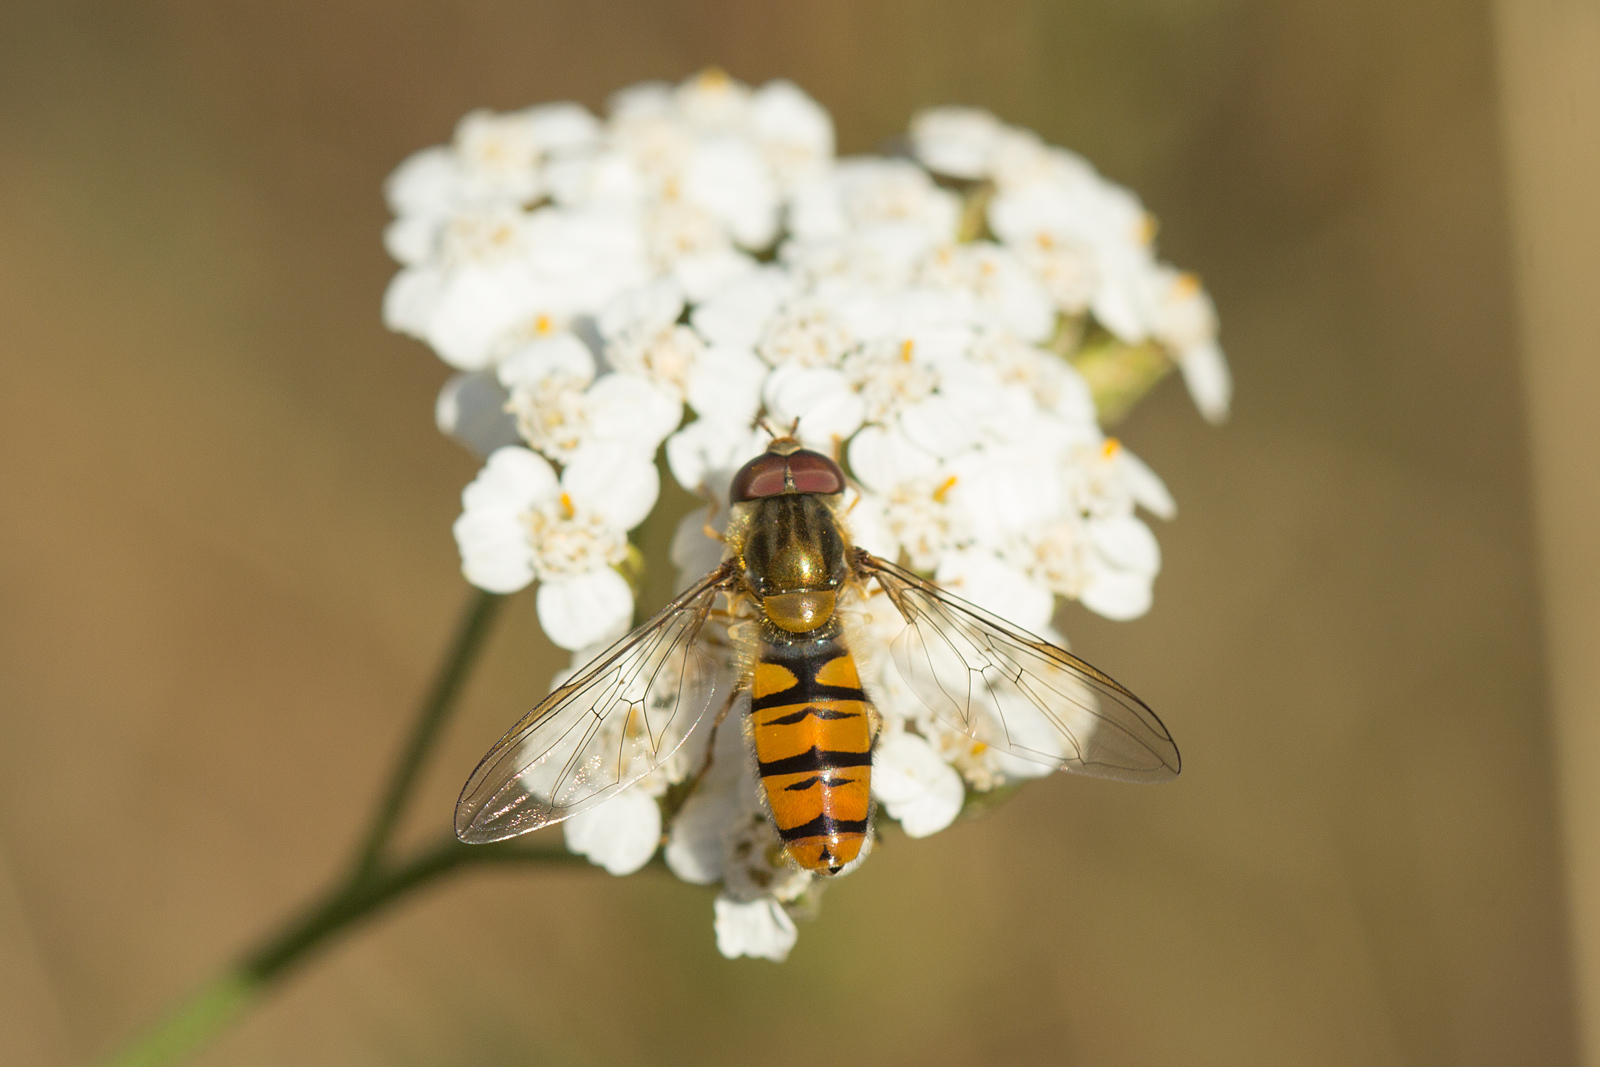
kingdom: Animalia
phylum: Arthropoda
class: Insecta
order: Diptera
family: Syrphidae
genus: Episyrphus
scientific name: Episyrphus balteatus
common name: Marmalade hoverfly
